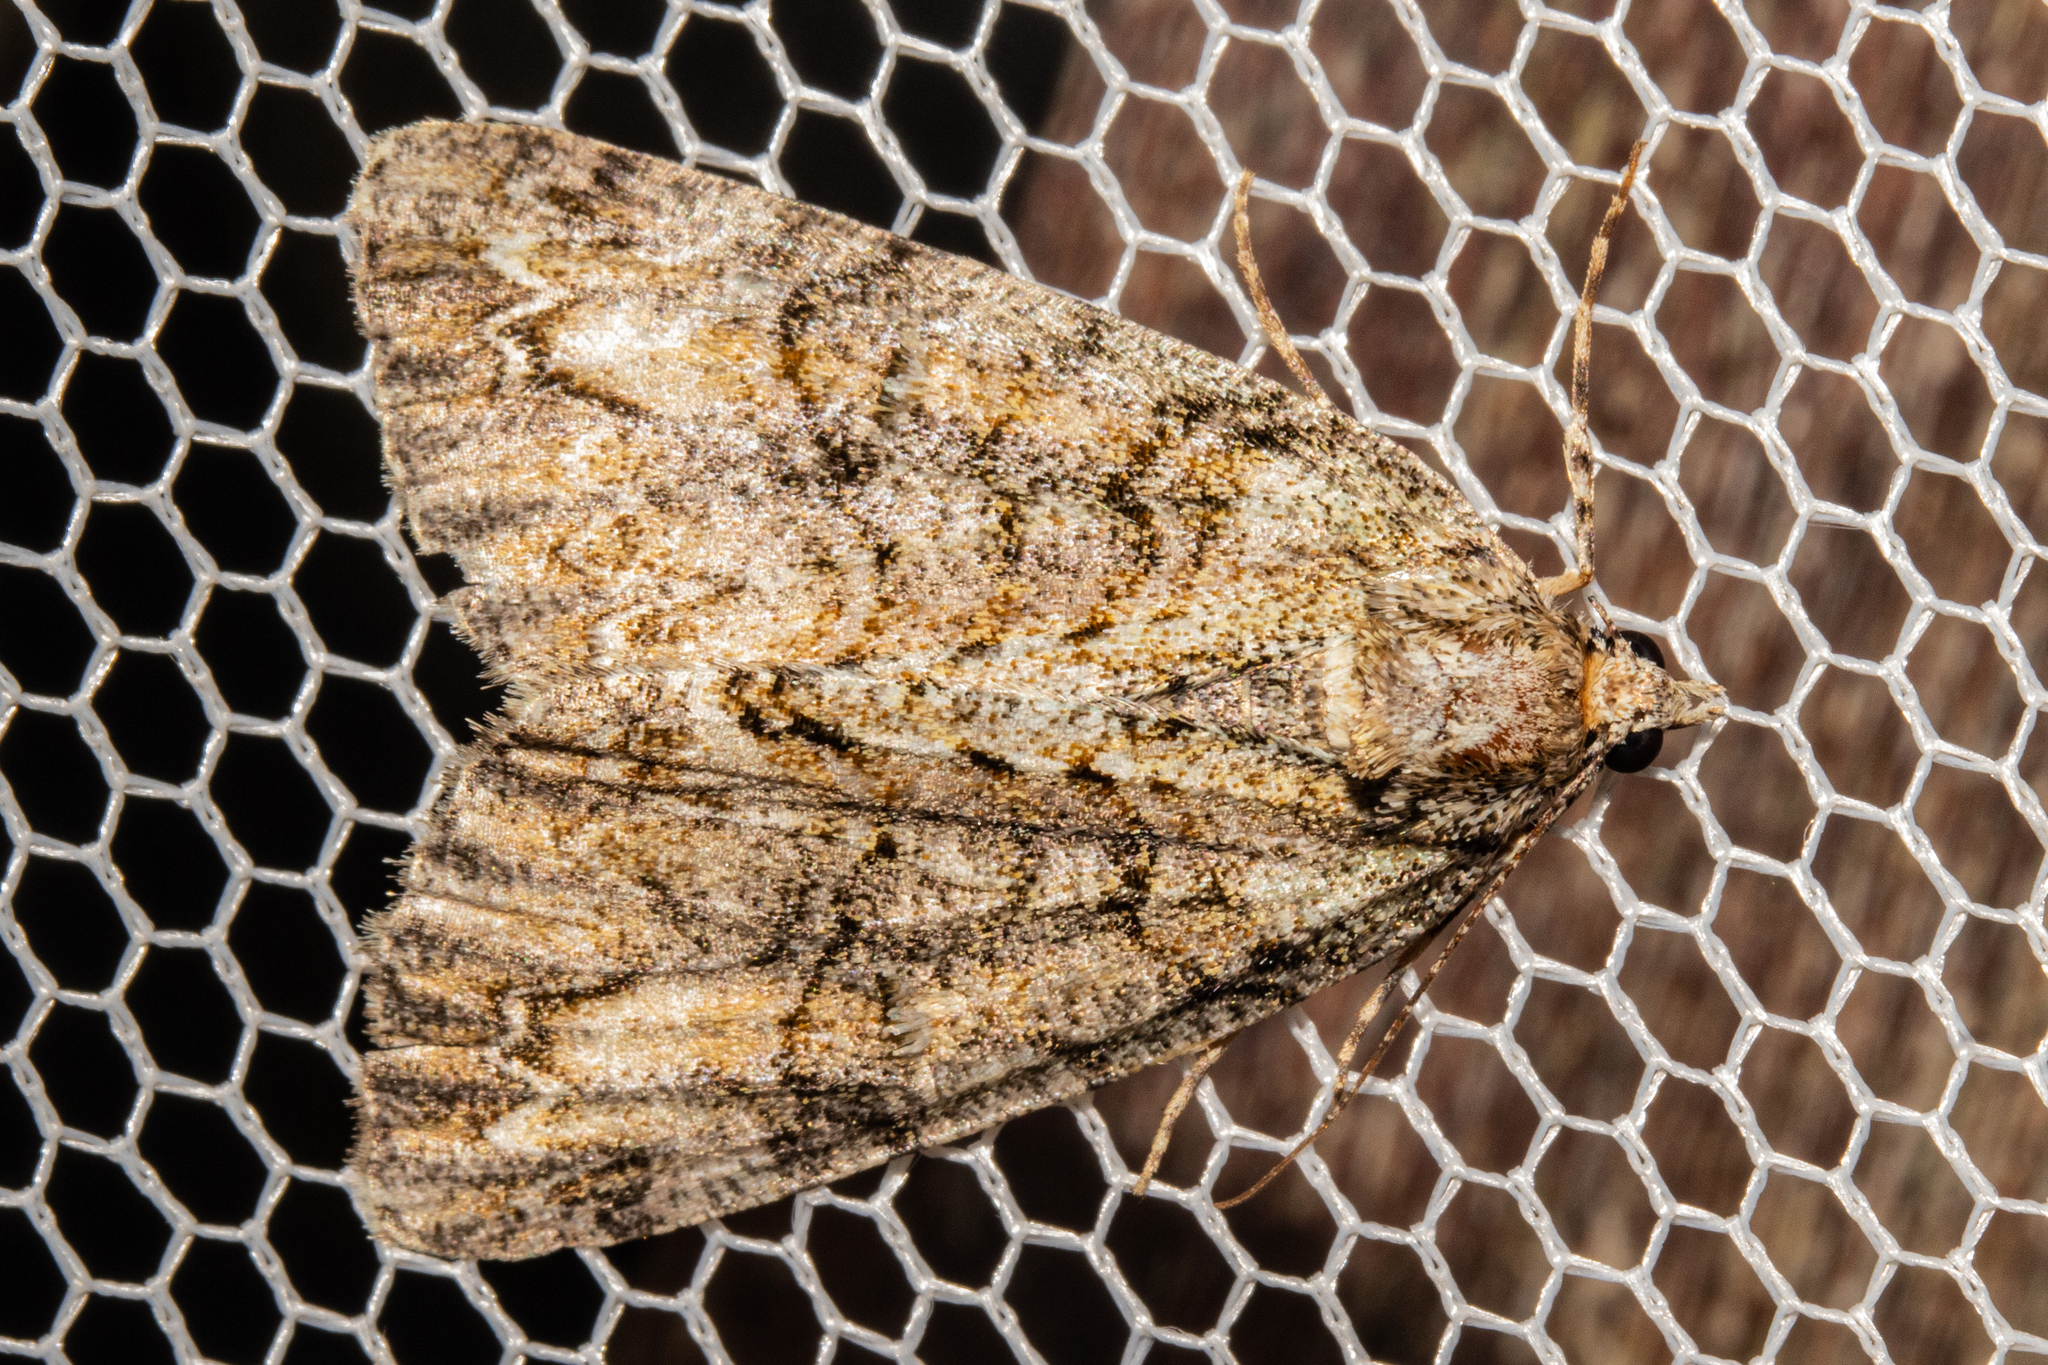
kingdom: Animalia
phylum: Arthropoda
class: Insecta
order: Lepidoptera
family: Geometridae
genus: Pseudocoremia
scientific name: Pseudocoremia suavis
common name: Common forest looper
